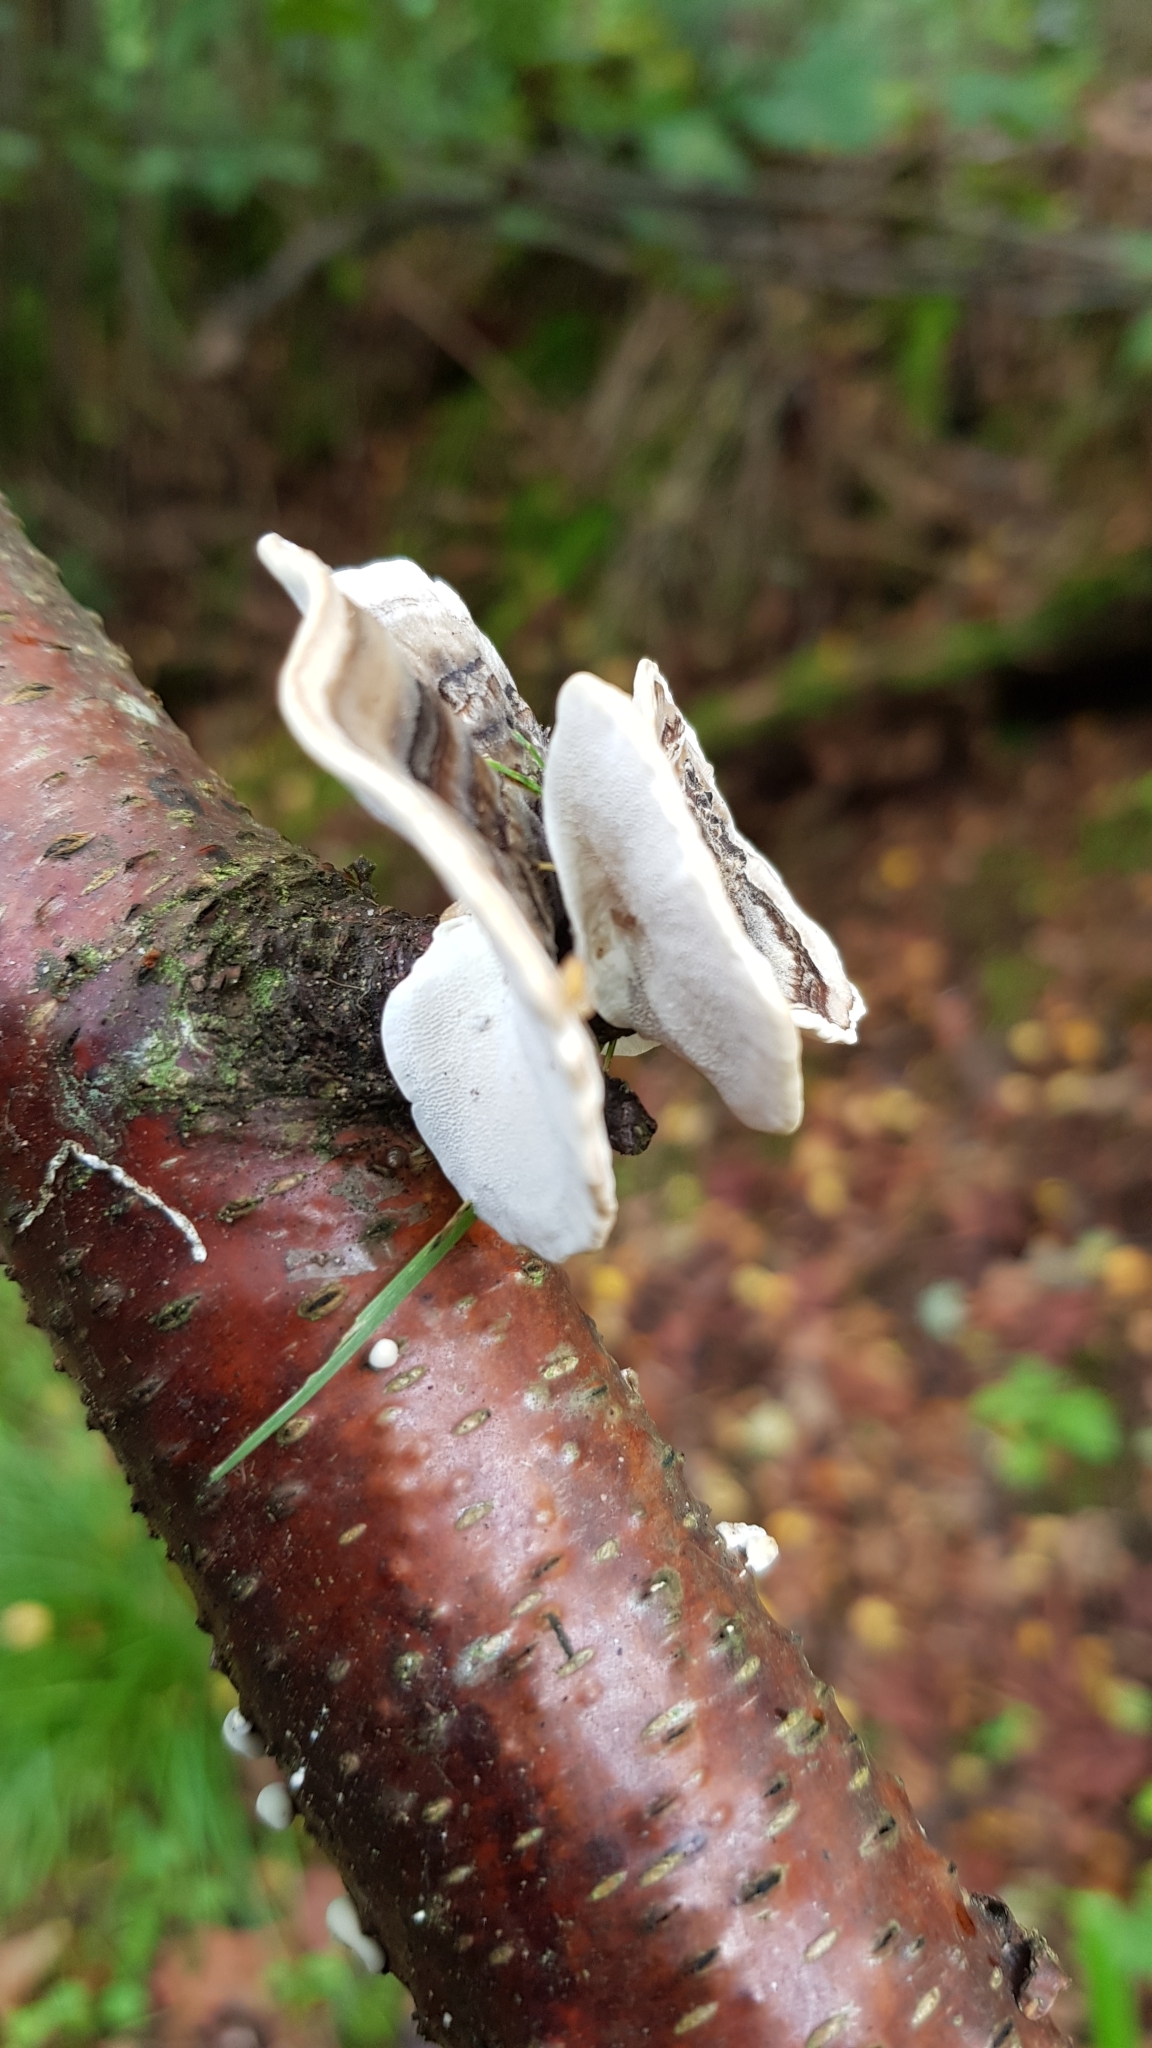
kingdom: Fungi
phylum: Basidiomycota
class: Agaricomycetes
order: Polyporales
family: Polyporaceae
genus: Trametes
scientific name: Trametes versicolor
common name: Turkeytail
